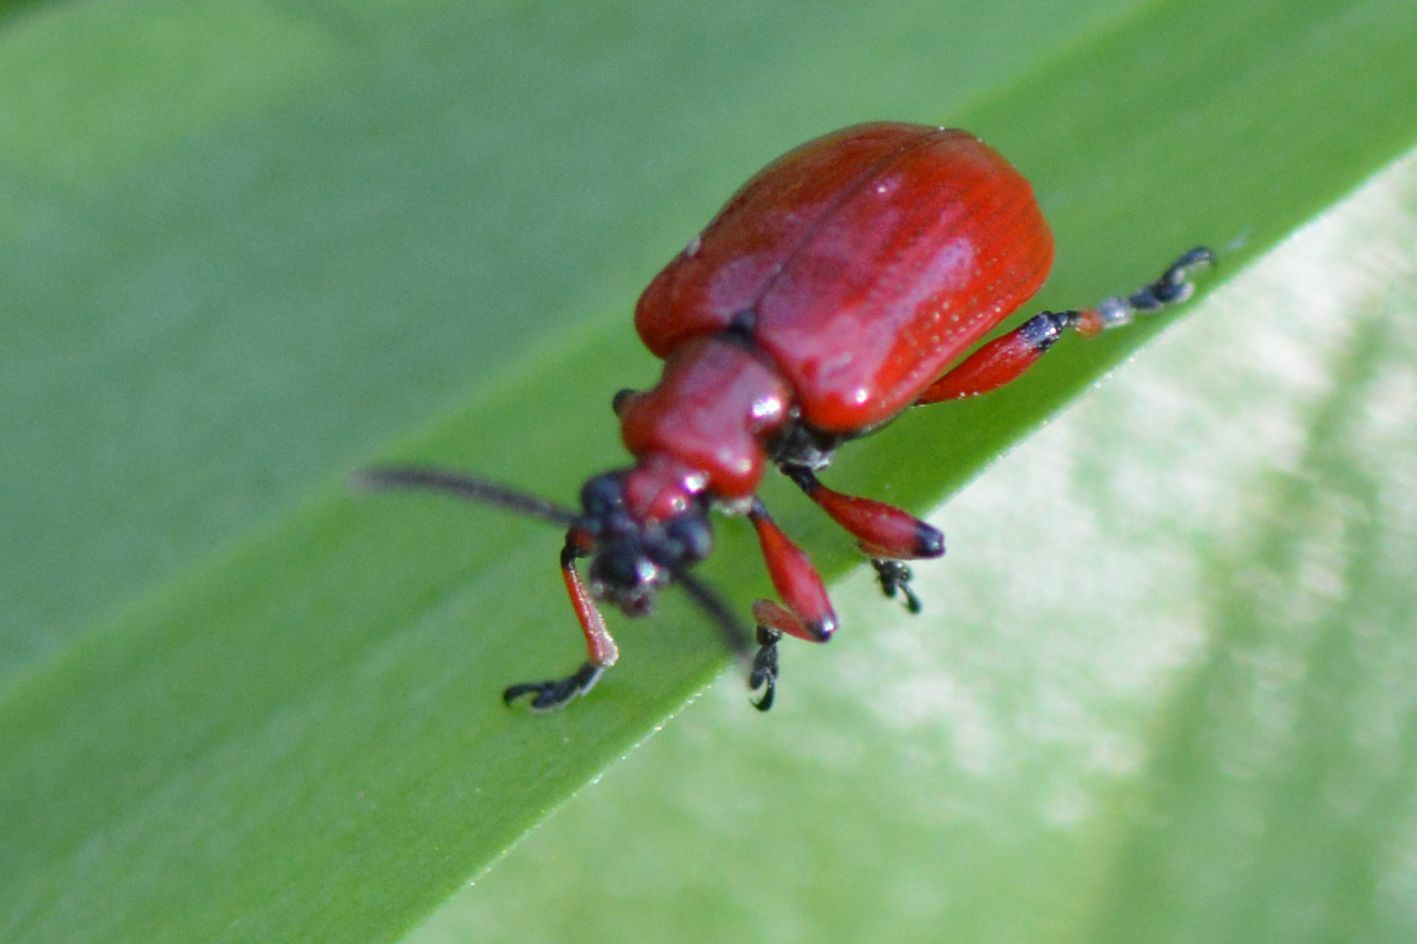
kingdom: Animalia
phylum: Arthropoda
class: Insecta
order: Coleoptera
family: Chrysomelidae
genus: Lilioceris
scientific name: Lilioceris merdigera
